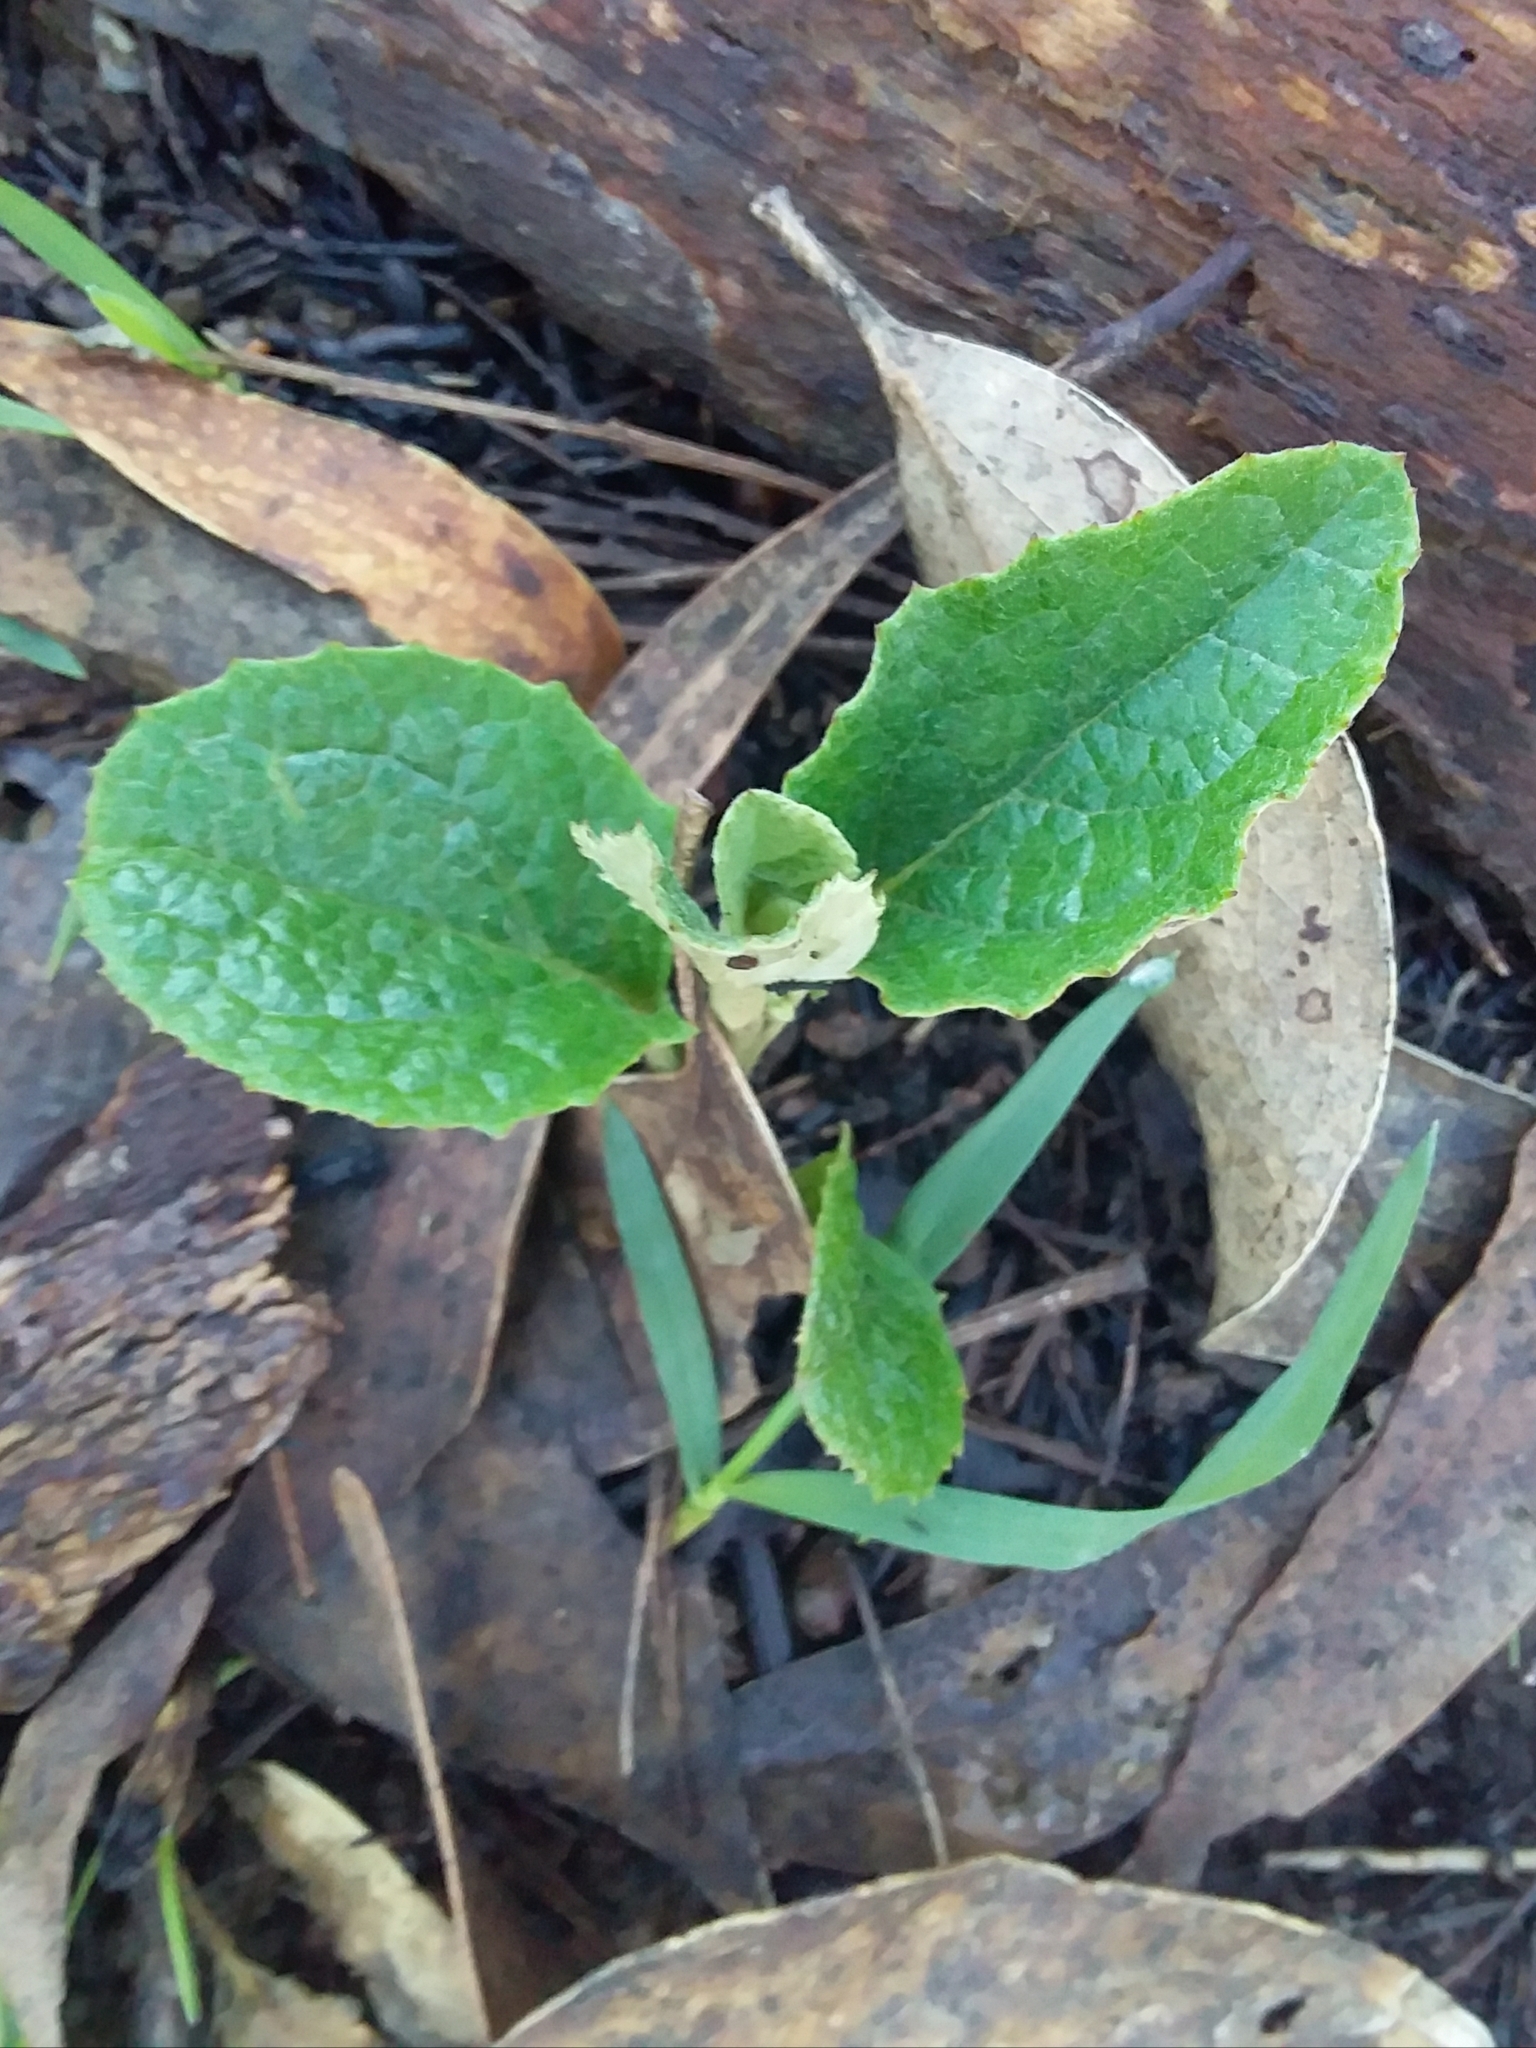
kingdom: Plantae
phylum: Tracheophyta
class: Magnoliopsida
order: Asterales
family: Asteraceae
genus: Olearia
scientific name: Olearia grandiflora
